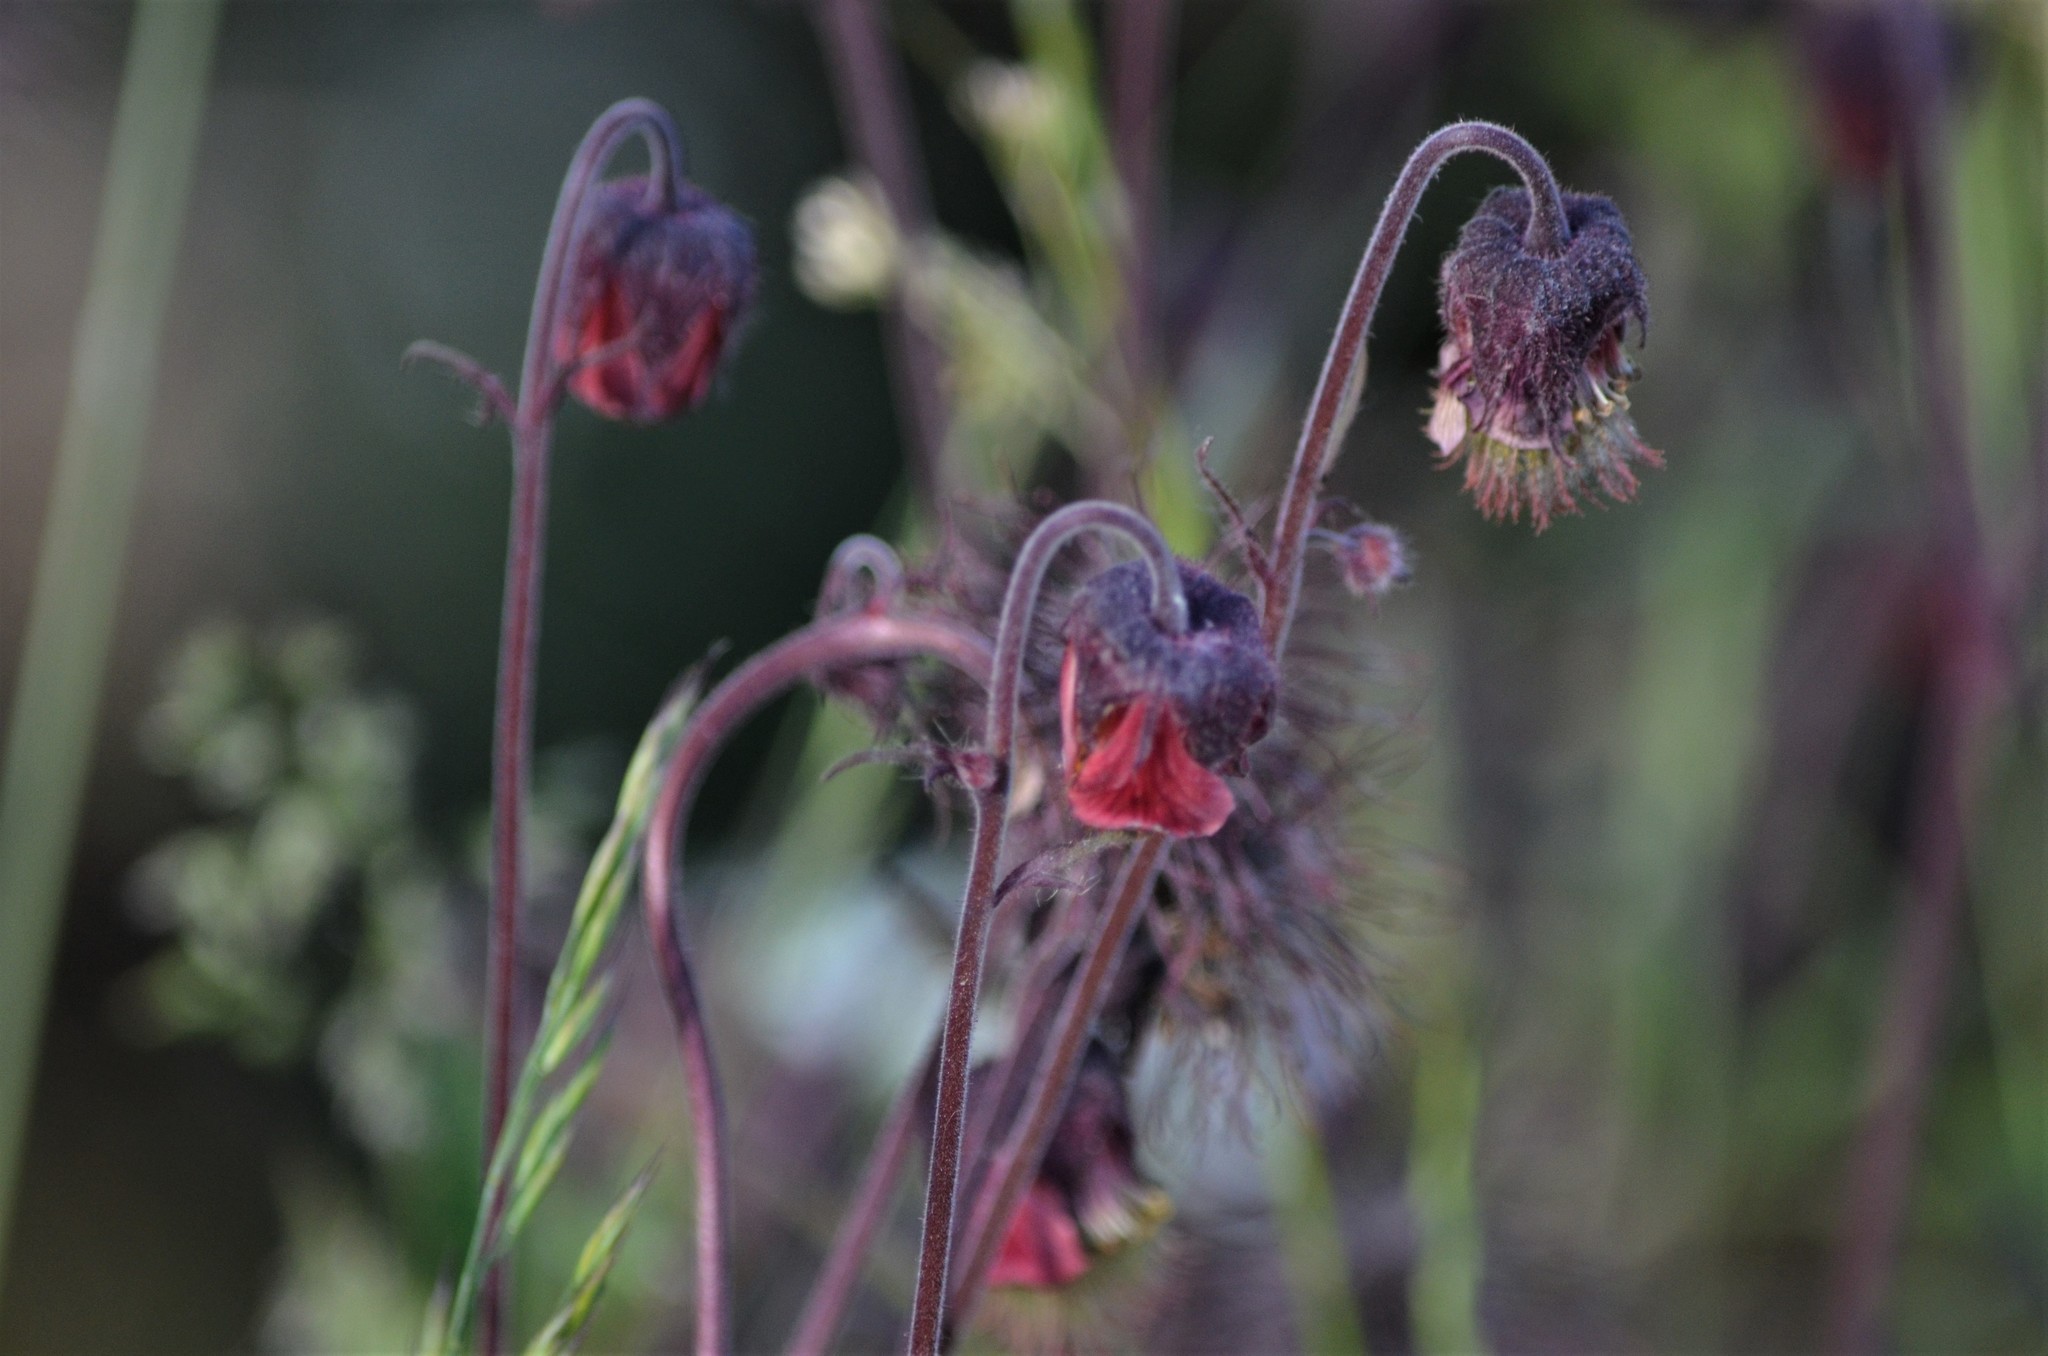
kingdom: Plantae
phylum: Tracheophyta
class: Magnoliopsida
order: Rosales
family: Rosaceae
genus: Geum
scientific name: Geum rivale
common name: Water avens
